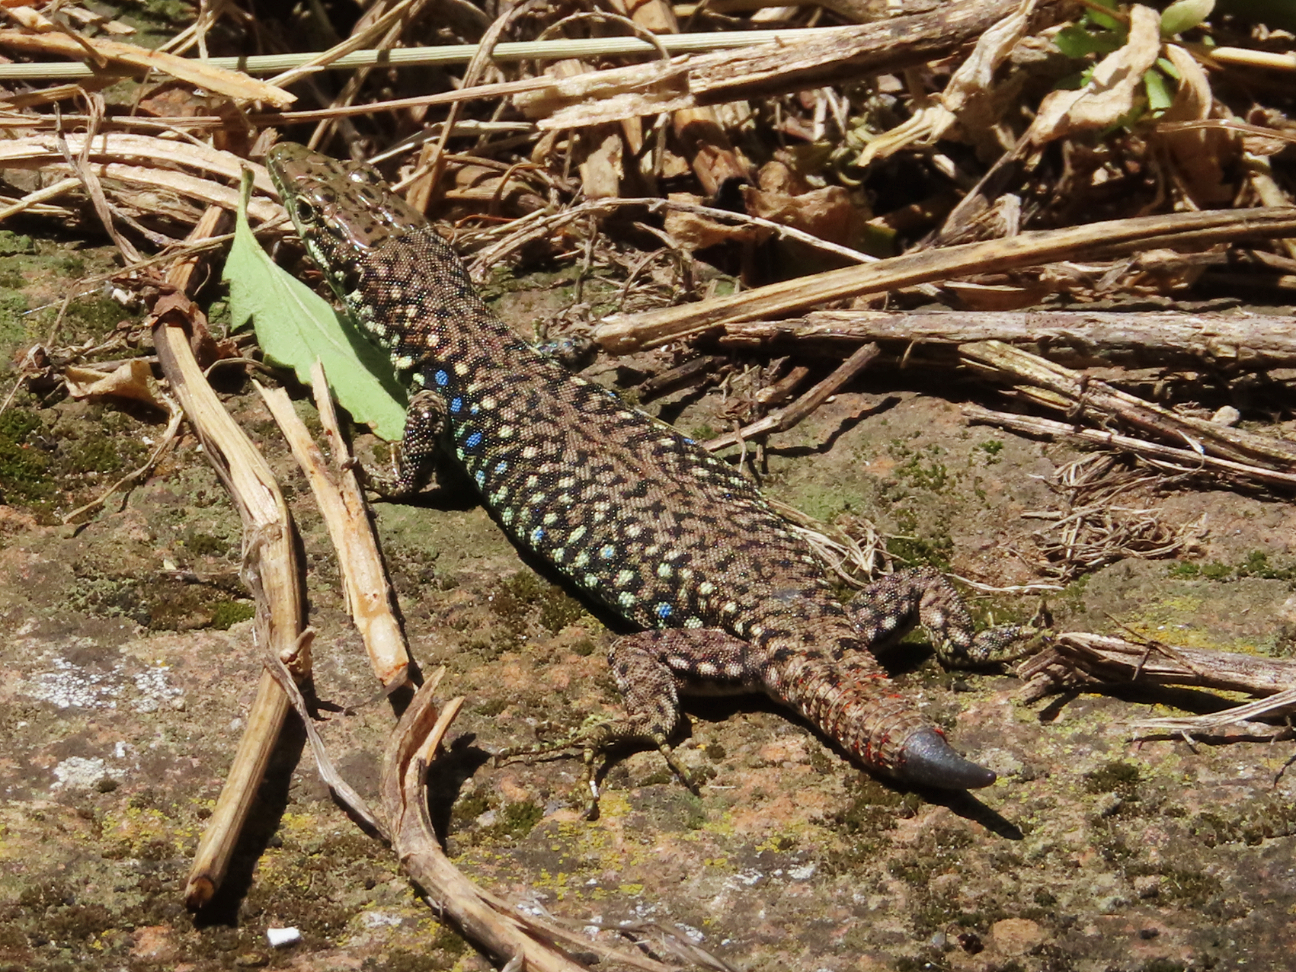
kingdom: Animalia
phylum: Chordata
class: Squamata
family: Lacertidae
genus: Darevskia
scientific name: Darevskia
